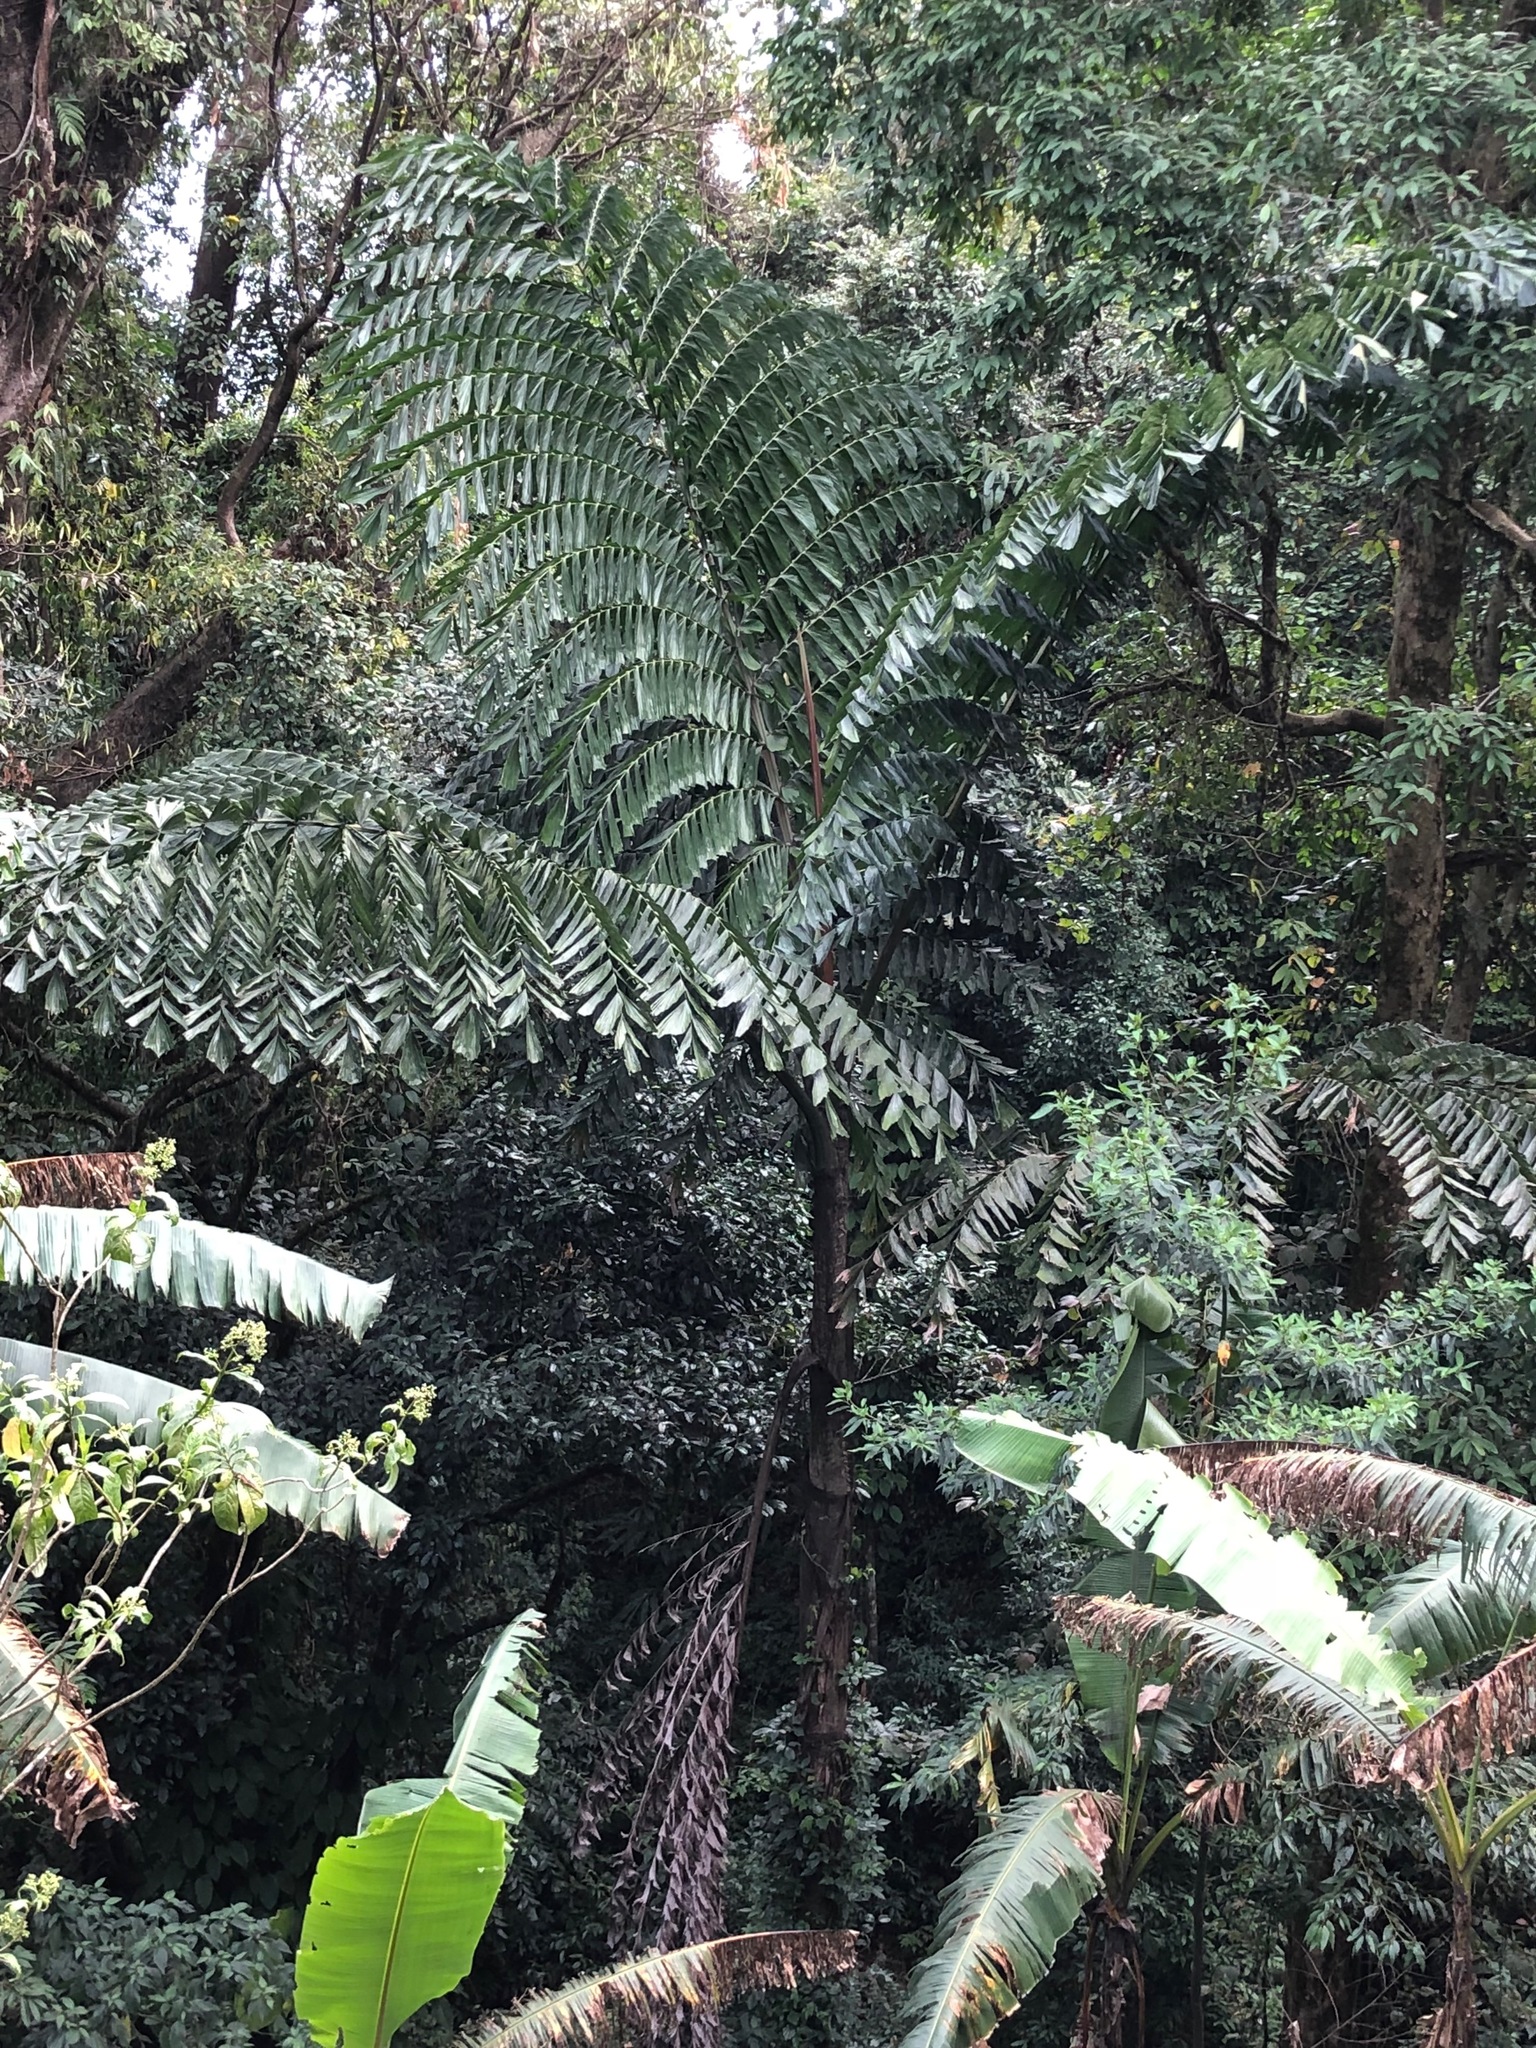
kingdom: Plantae
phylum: Tracheophyta
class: Liliopsida
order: Arecales
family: Arecaceae
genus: Caryota
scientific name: Caryota mitis
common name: Burmese fishtail palm
